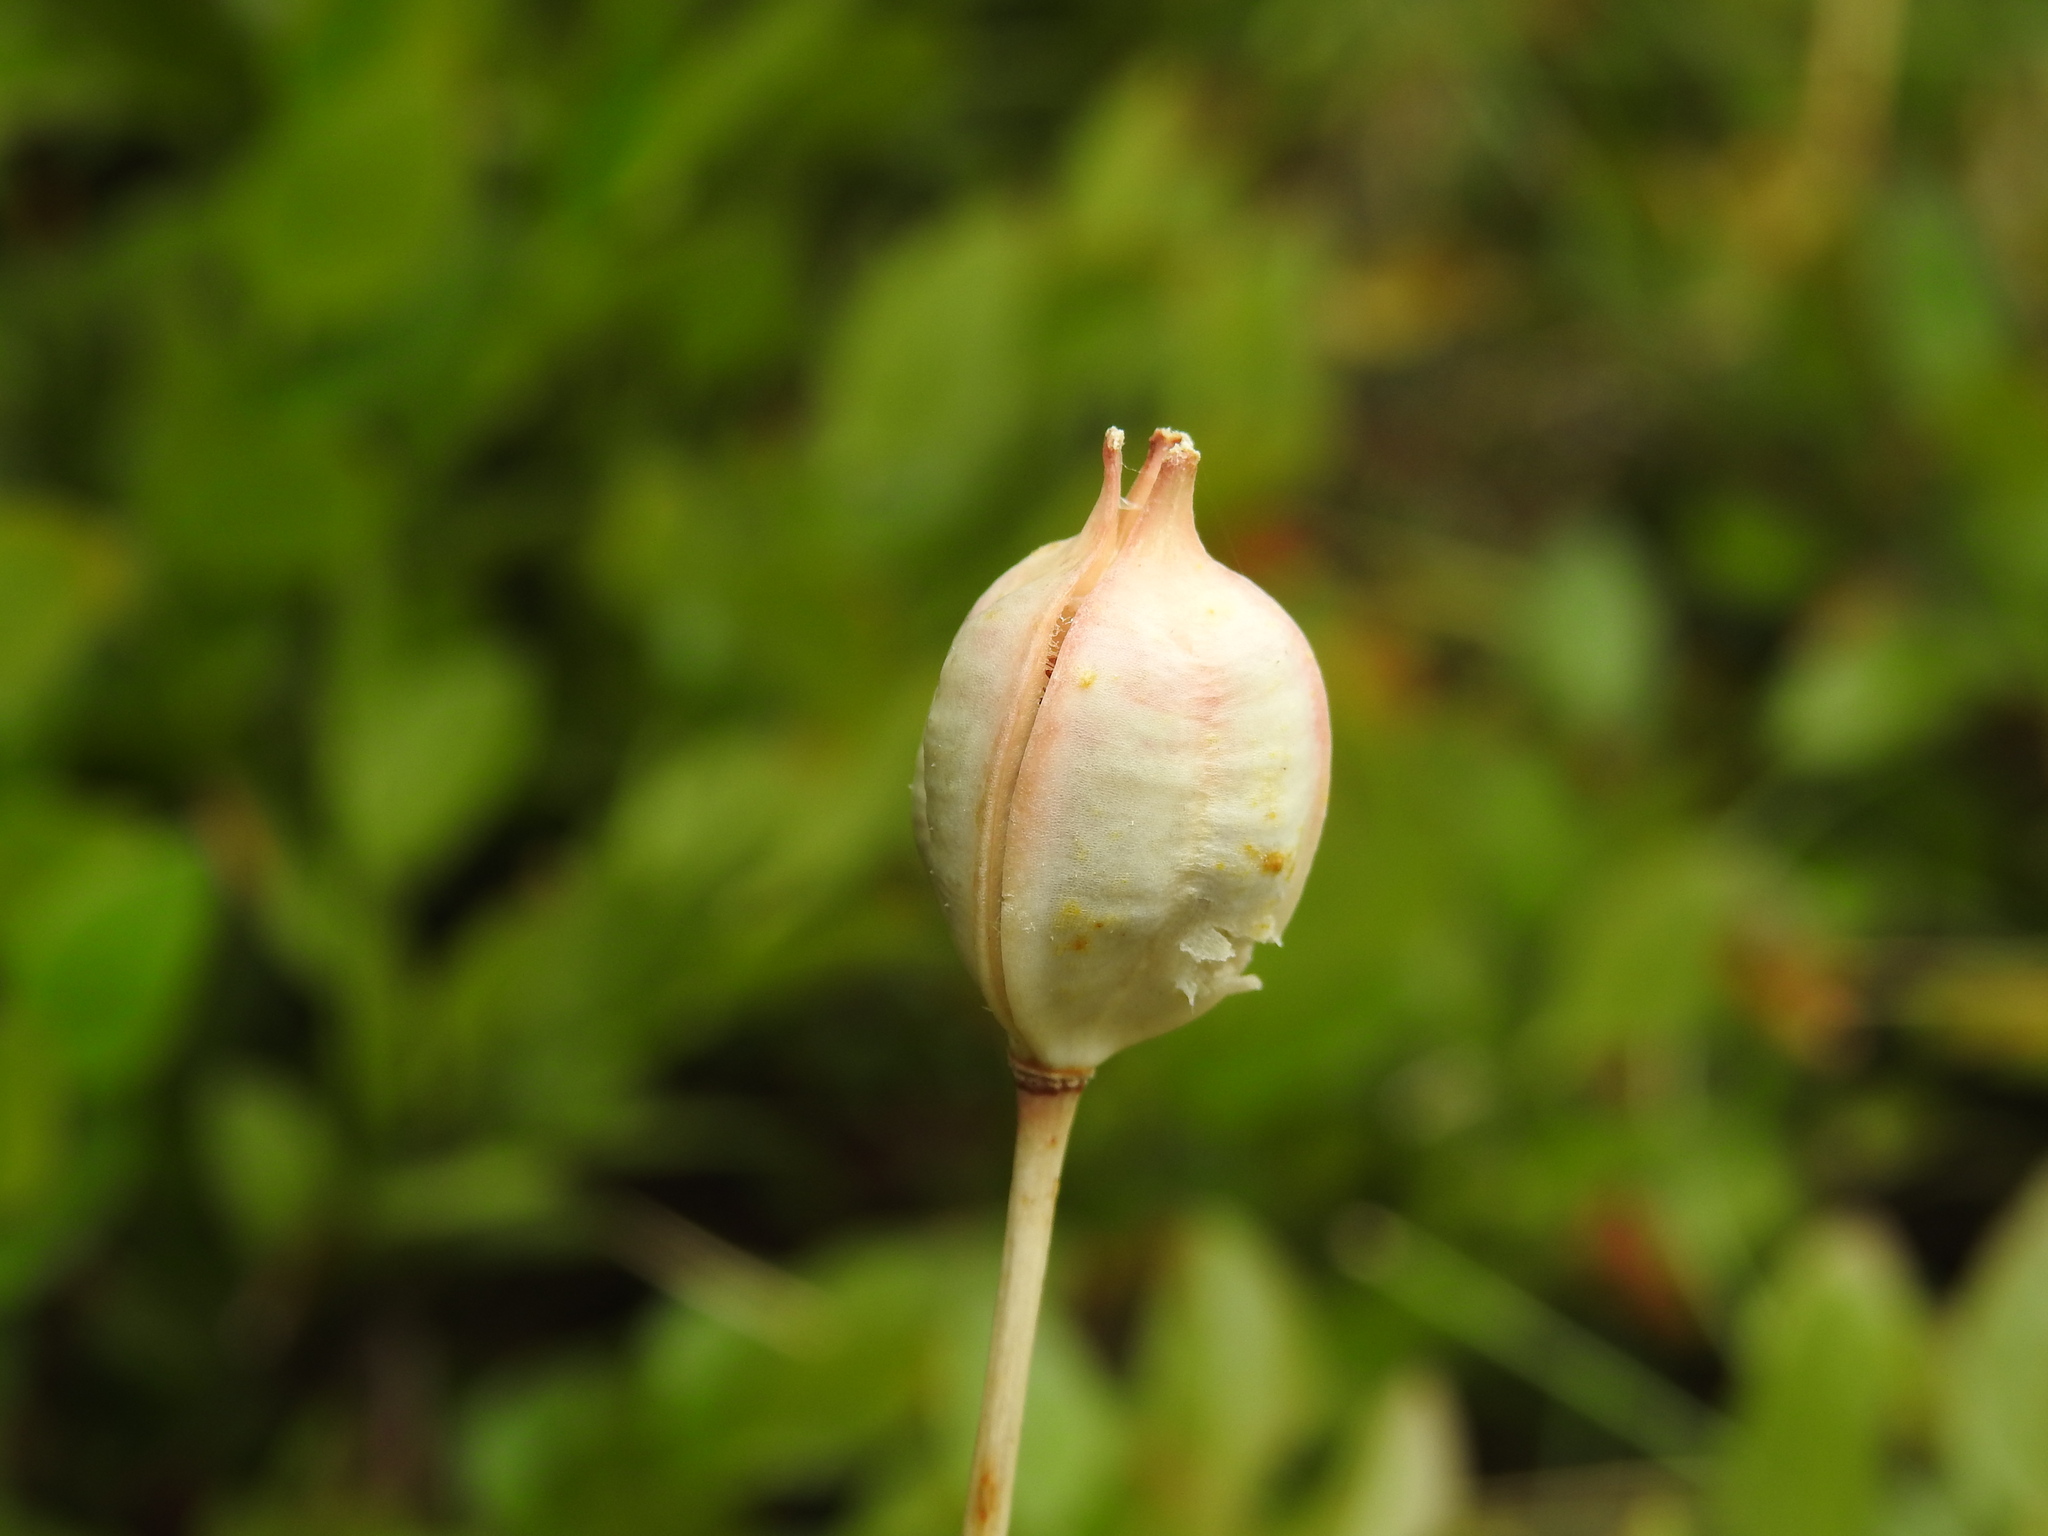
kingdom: Plantae
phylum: Tracheophyta
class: Liliopsida
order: Liliales
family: Liliaceae
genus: Tulipa
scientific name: Tulipa sylvestris
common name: Wild tulip
